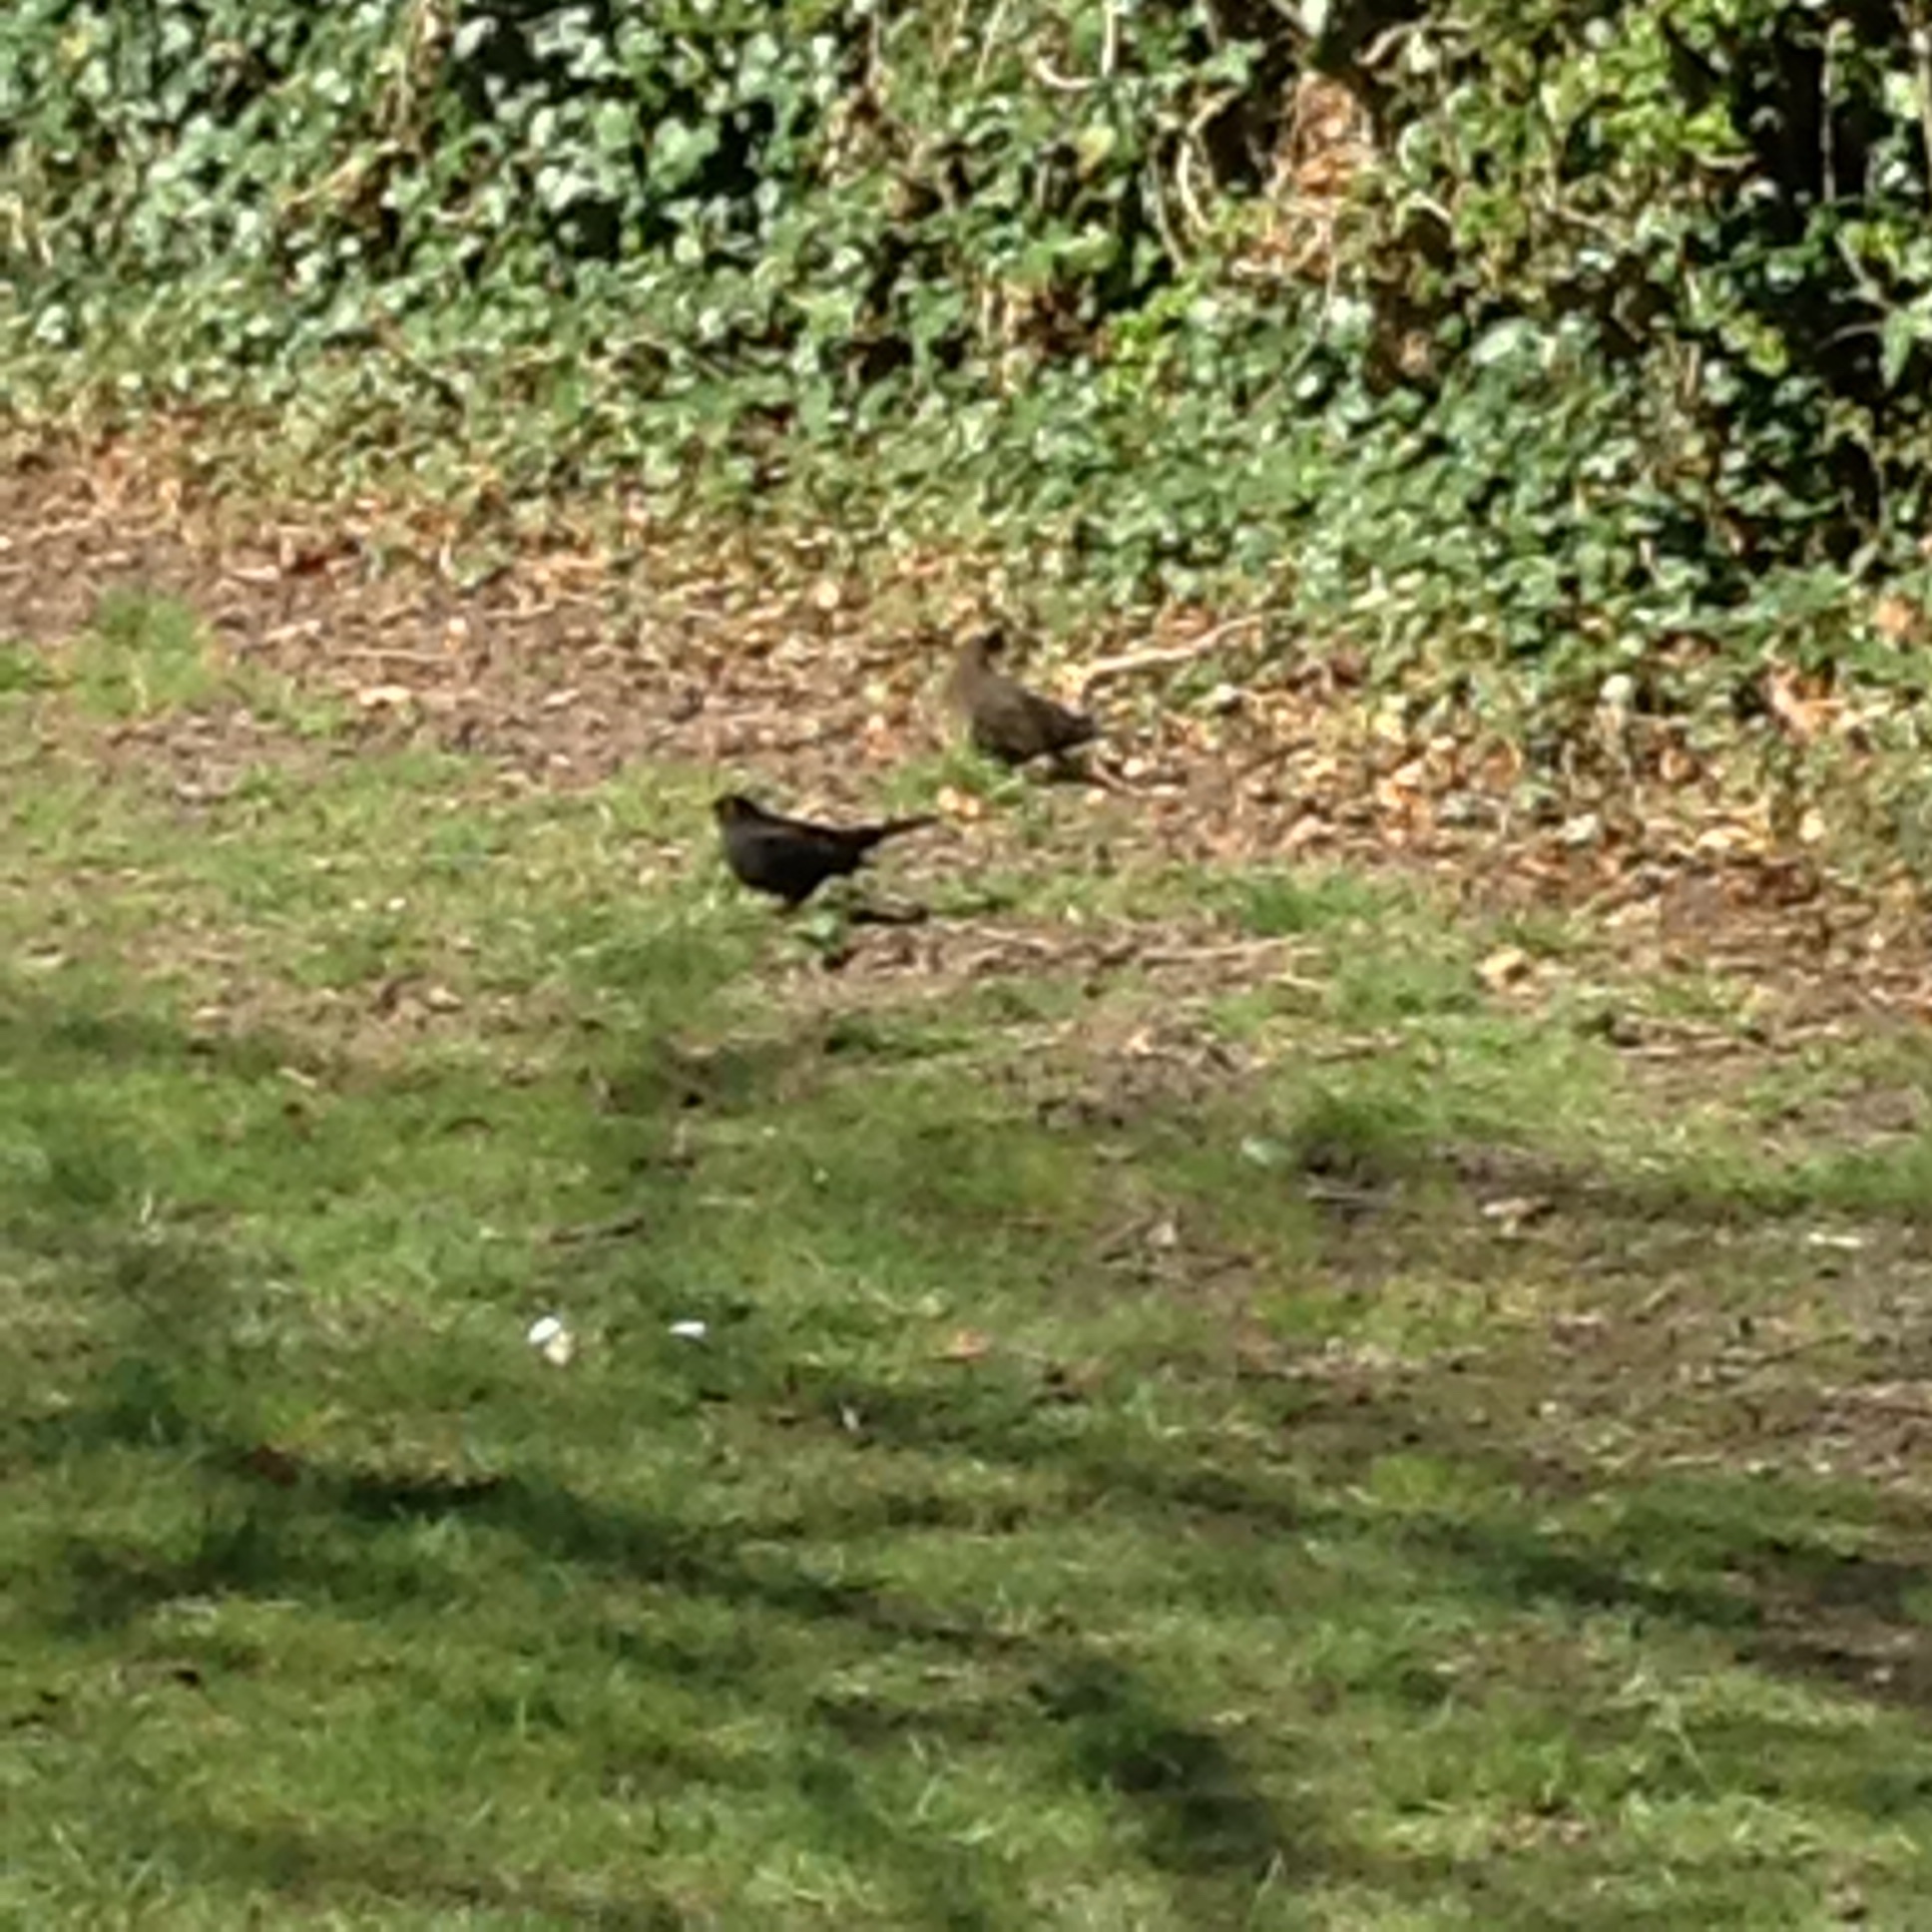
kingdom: Animalia
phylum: Chordata
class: Aves
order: Passeriformes
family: Turdidae
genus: Turdus
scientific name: Turdus merula
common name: Common blackbird
